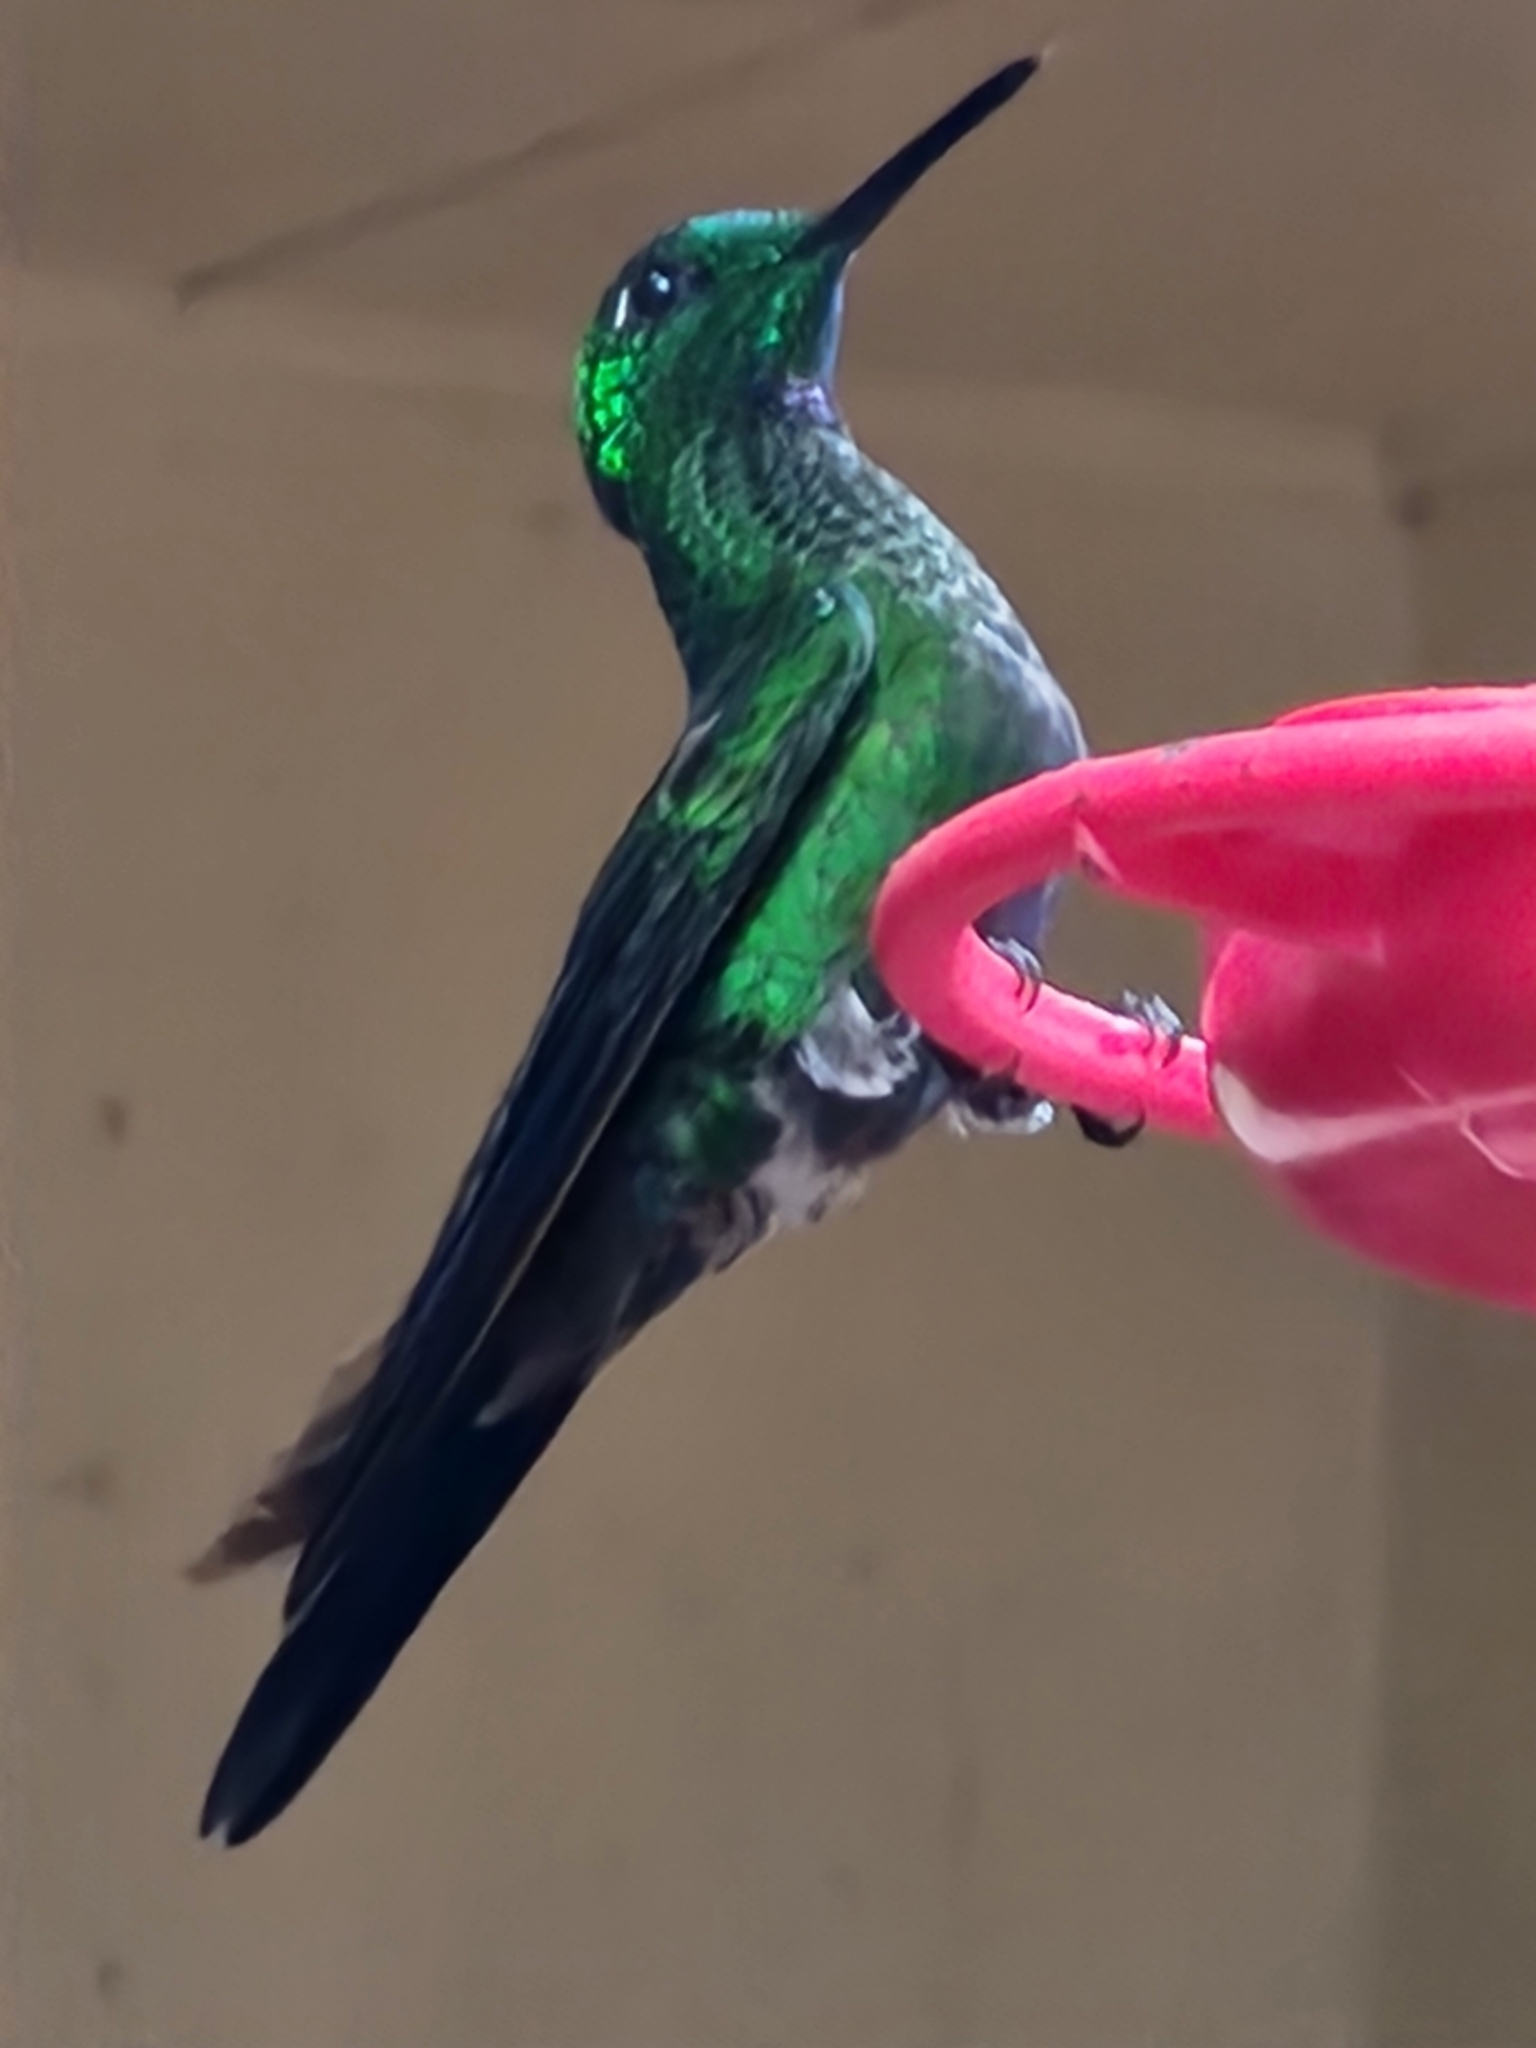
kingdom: Animalia
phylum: Chordata
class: Aves
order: Apodiformes
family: Trochilidae
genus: Heliodoxa
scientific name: Heliodoxa jacula
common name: Green-crowned brilliant
